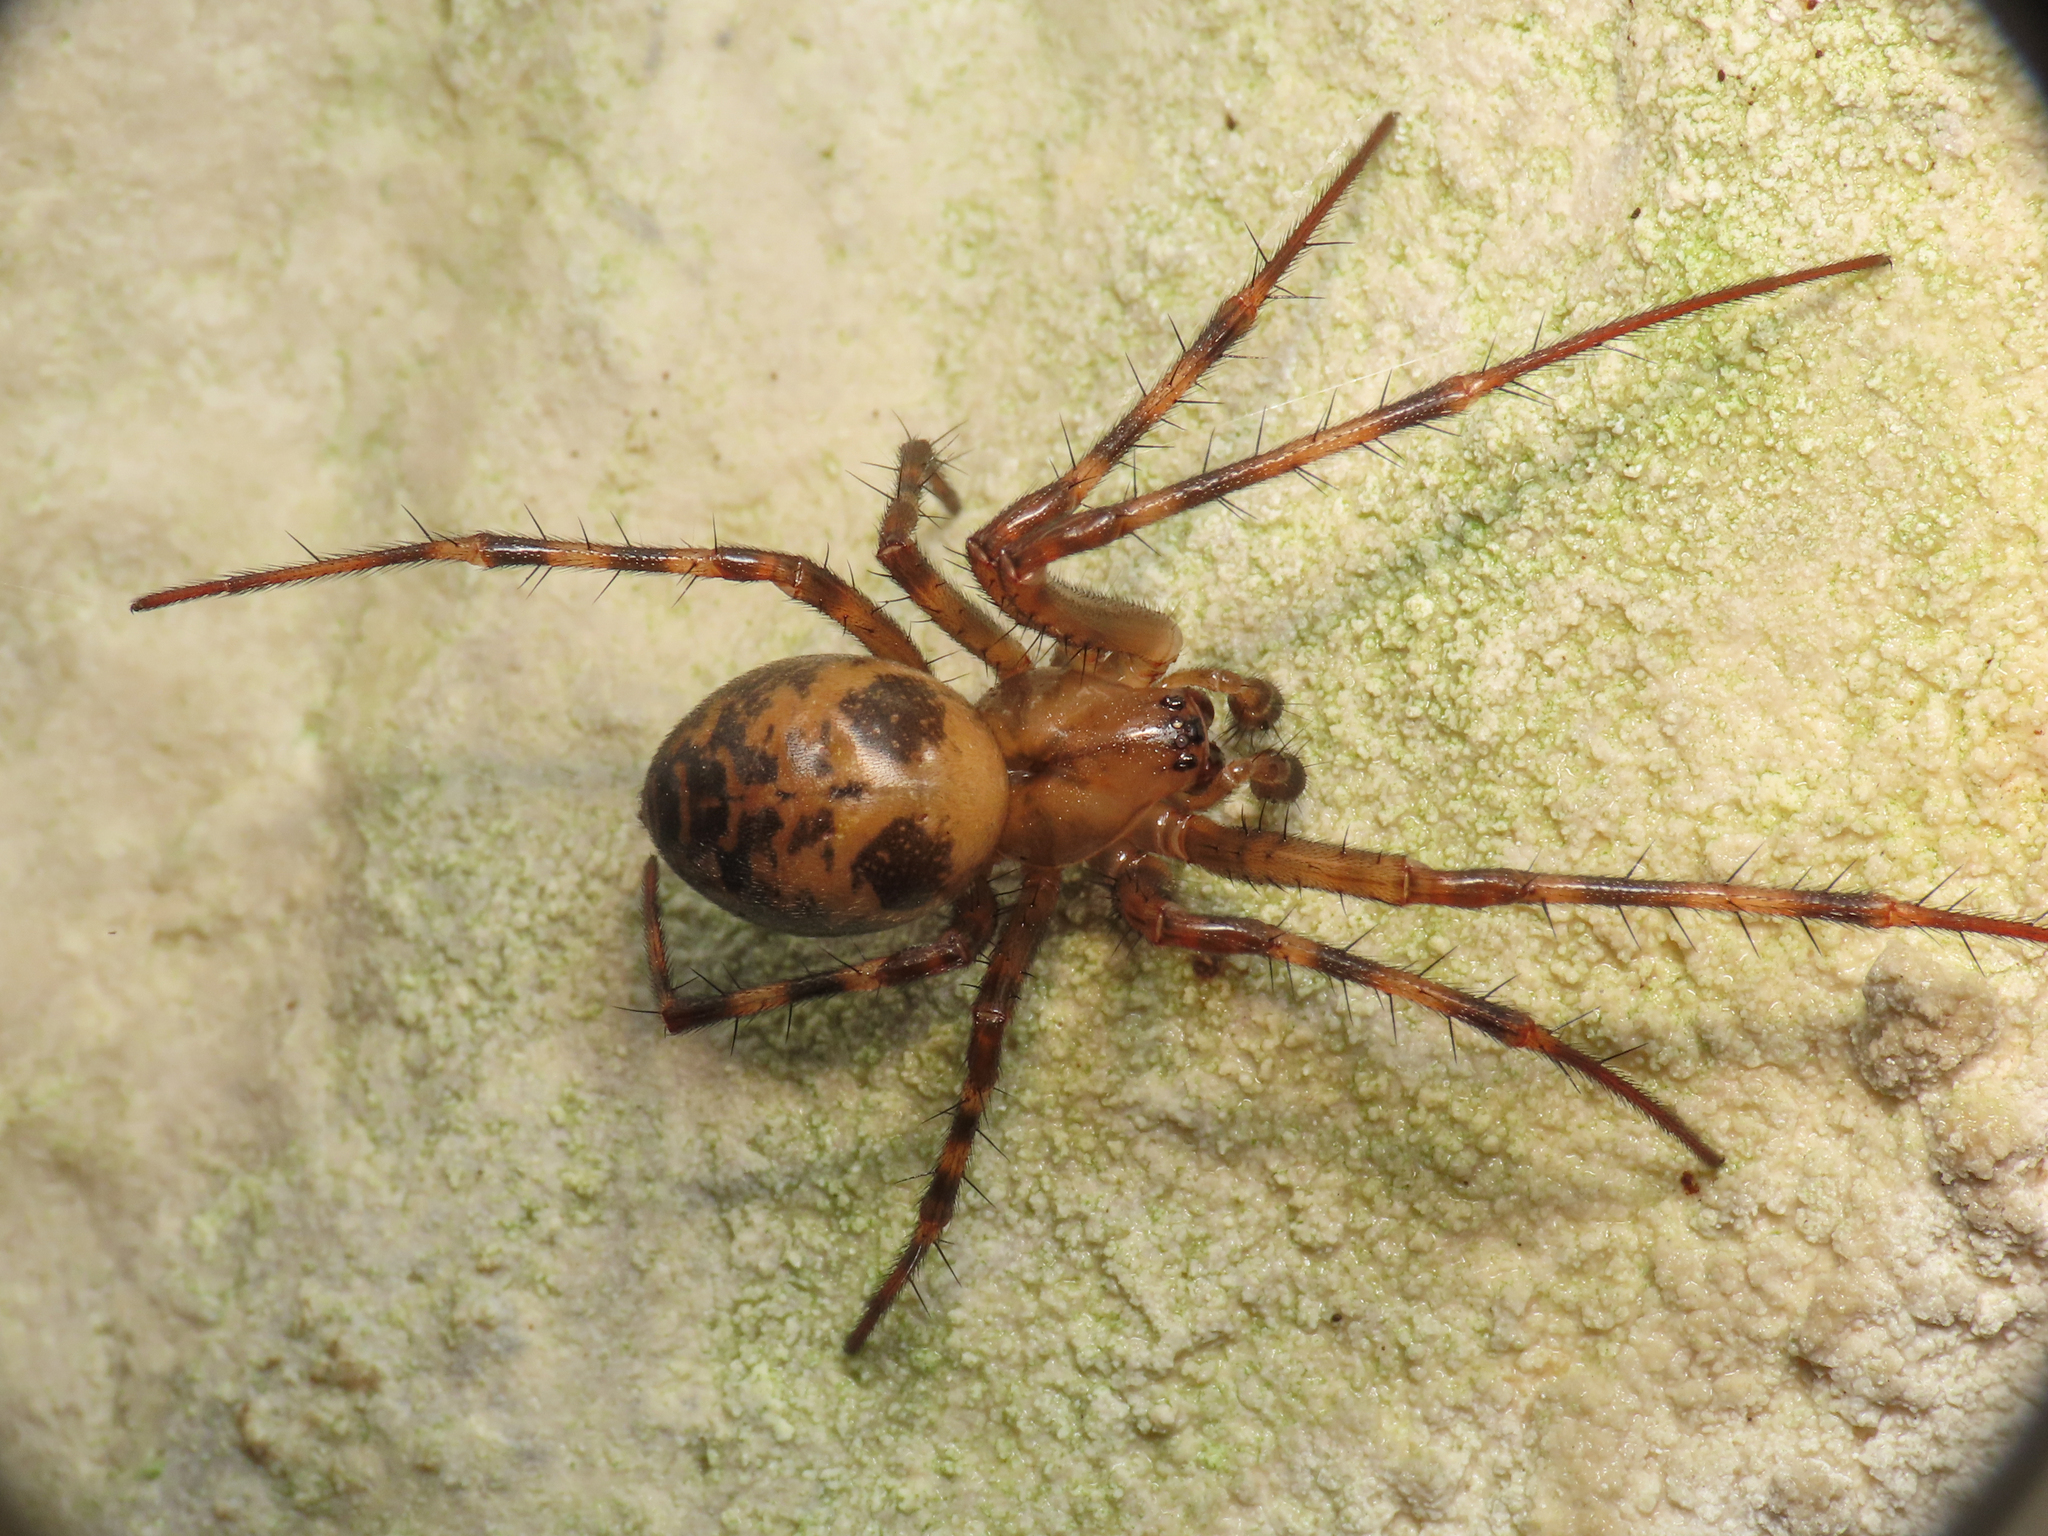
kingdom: Animalia
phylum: Arthropoda
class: Arachnida
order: Araneae
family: Tetragnathidae
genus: Meta
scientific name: Meta menardi
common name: Cave spider
